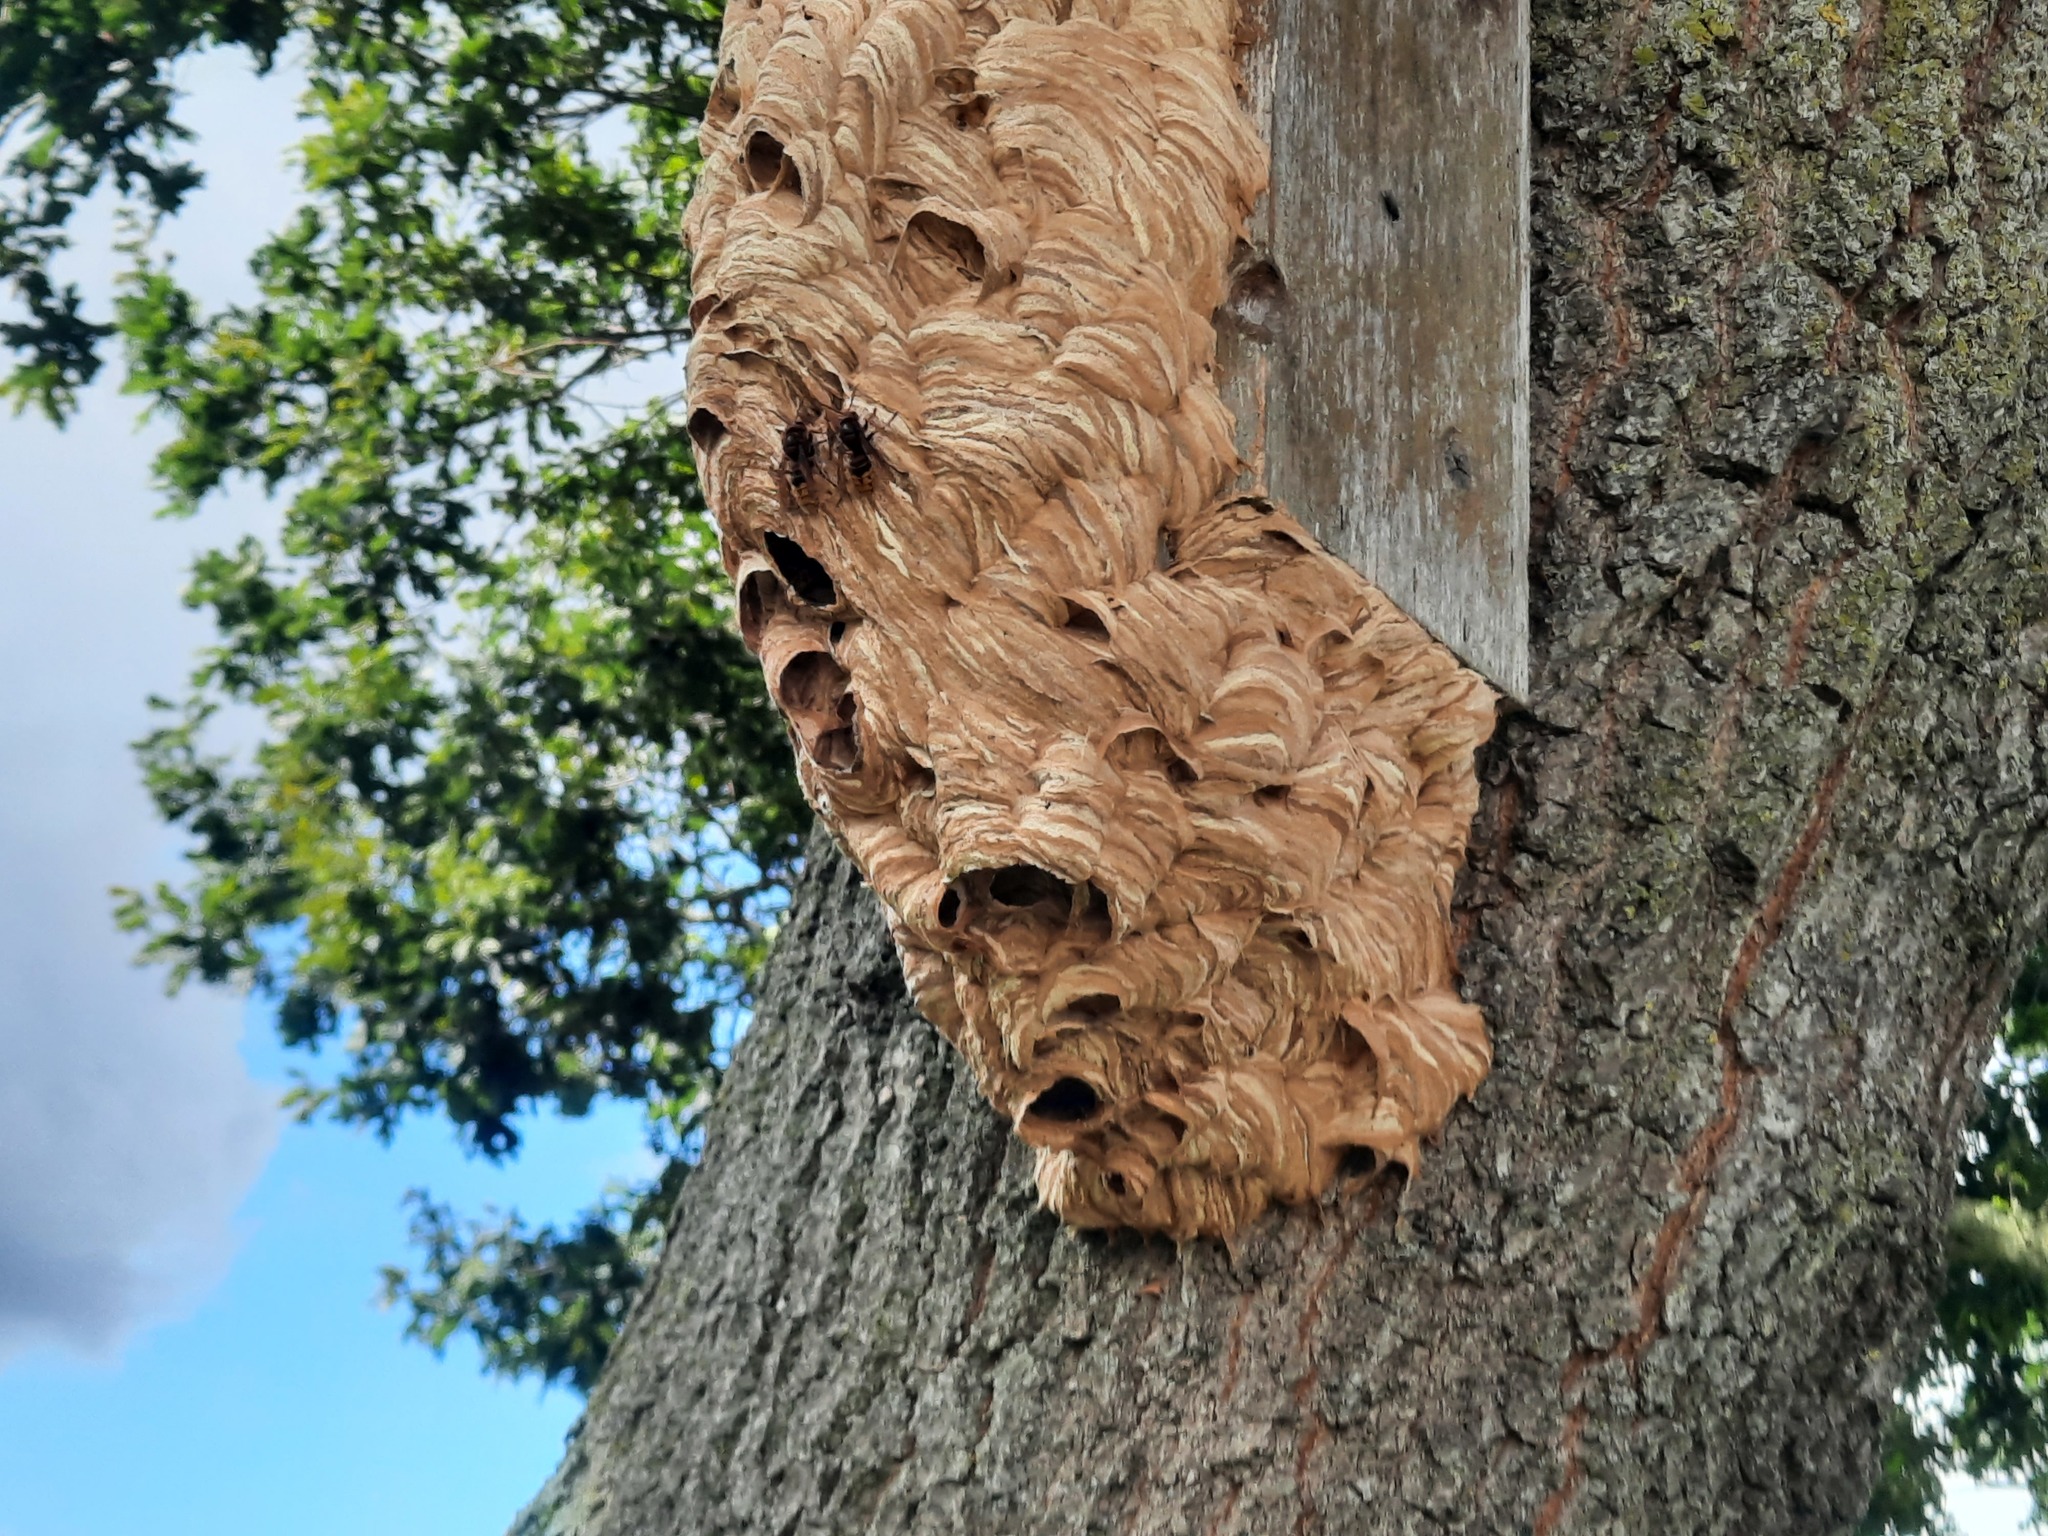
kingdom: Animalia
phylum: Arthropoda
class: Insecta
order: Hymenoptera
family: Vespidae
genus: Vespa
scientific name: Vespa crabro
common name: Hornet
